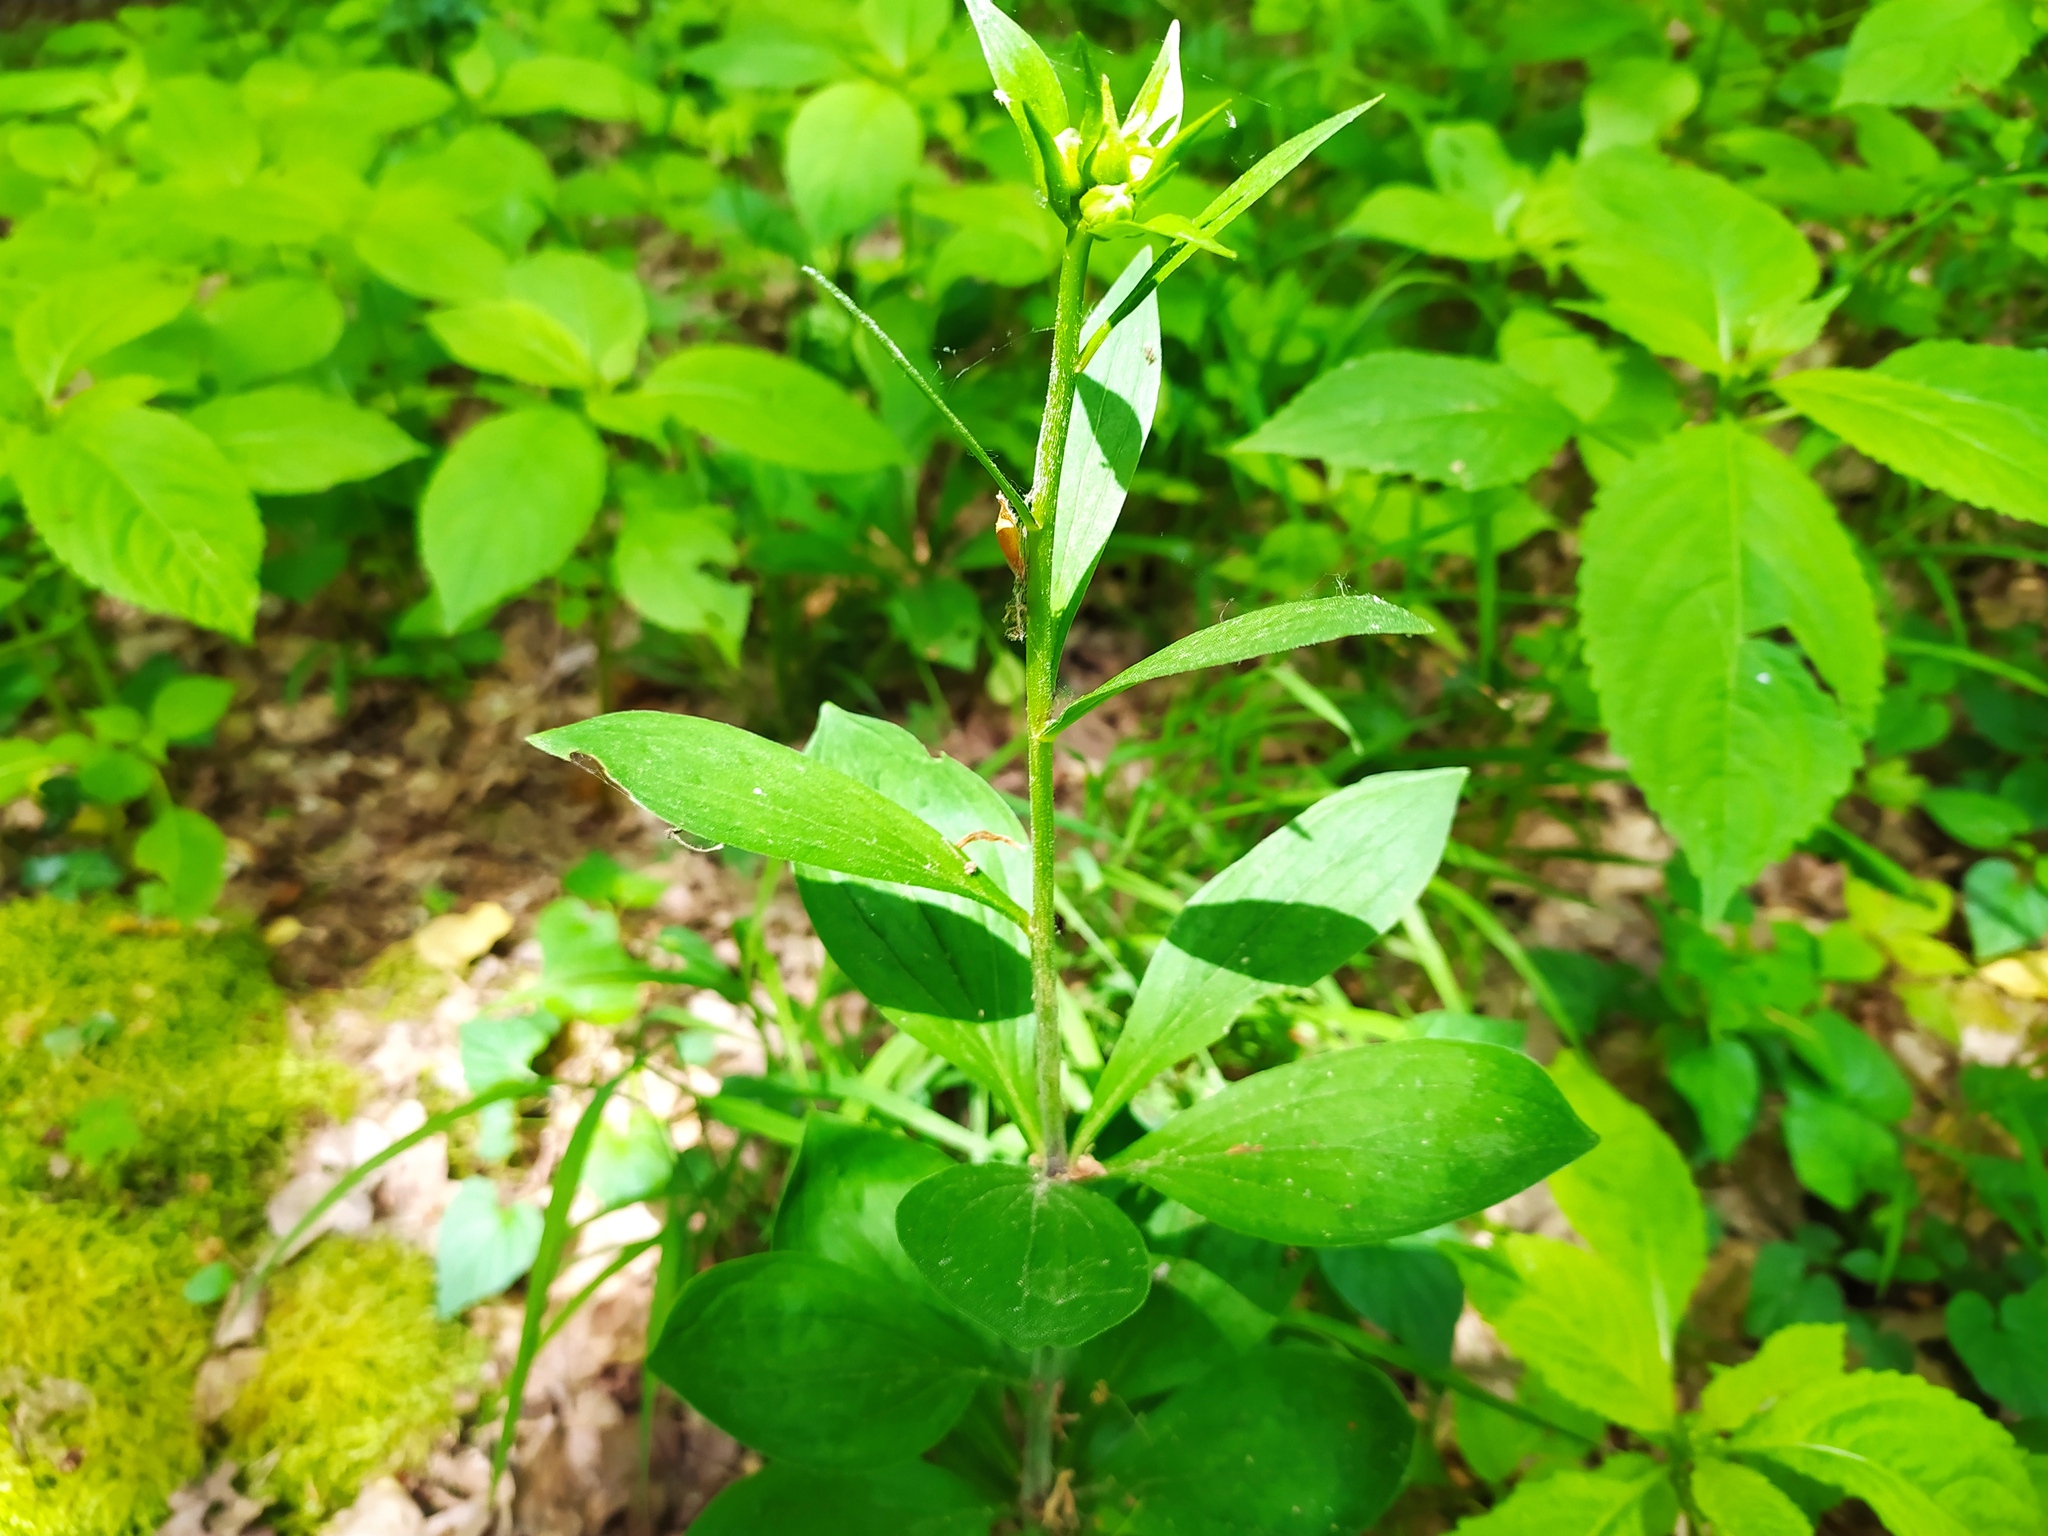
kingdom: Plantae
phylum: Tracheophyta
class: Liliopsida
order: Liliales
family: Liliaceae
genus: Lilium
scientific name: Lilium martagon
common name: Martagon lily
